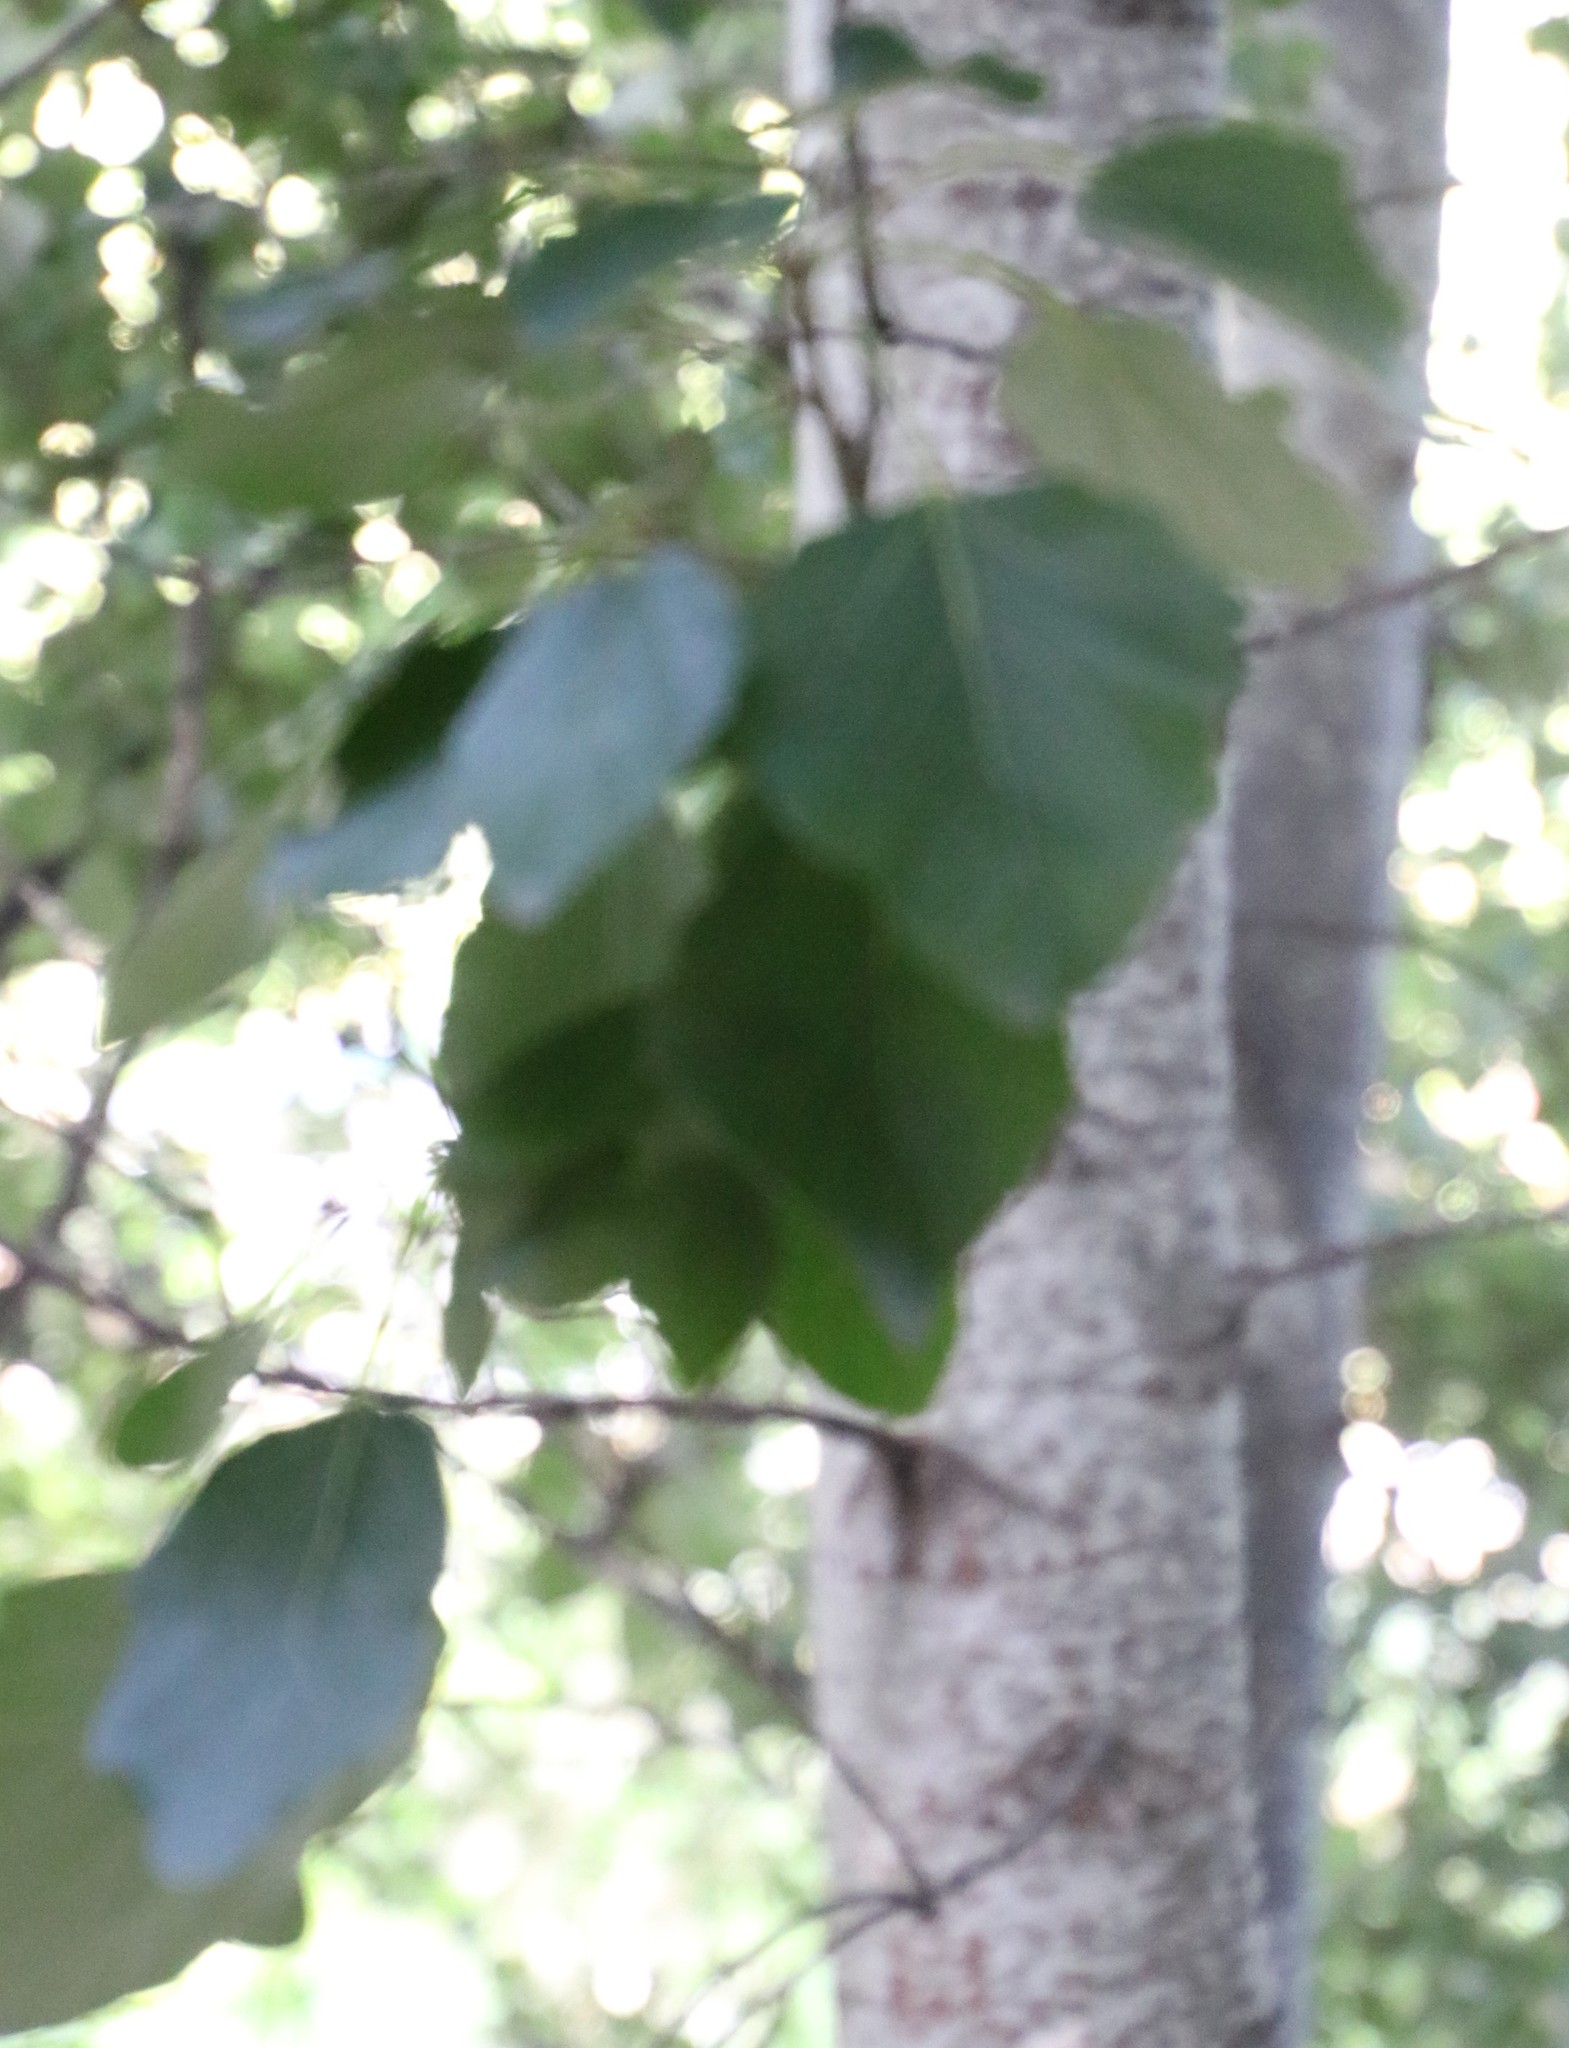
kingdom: Plantae
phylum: Tracheophyta
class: Magnoliopsida
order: Malpighiales
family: Salicaceae
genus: Populus
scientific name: Populus canescens
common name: Gray poplar
